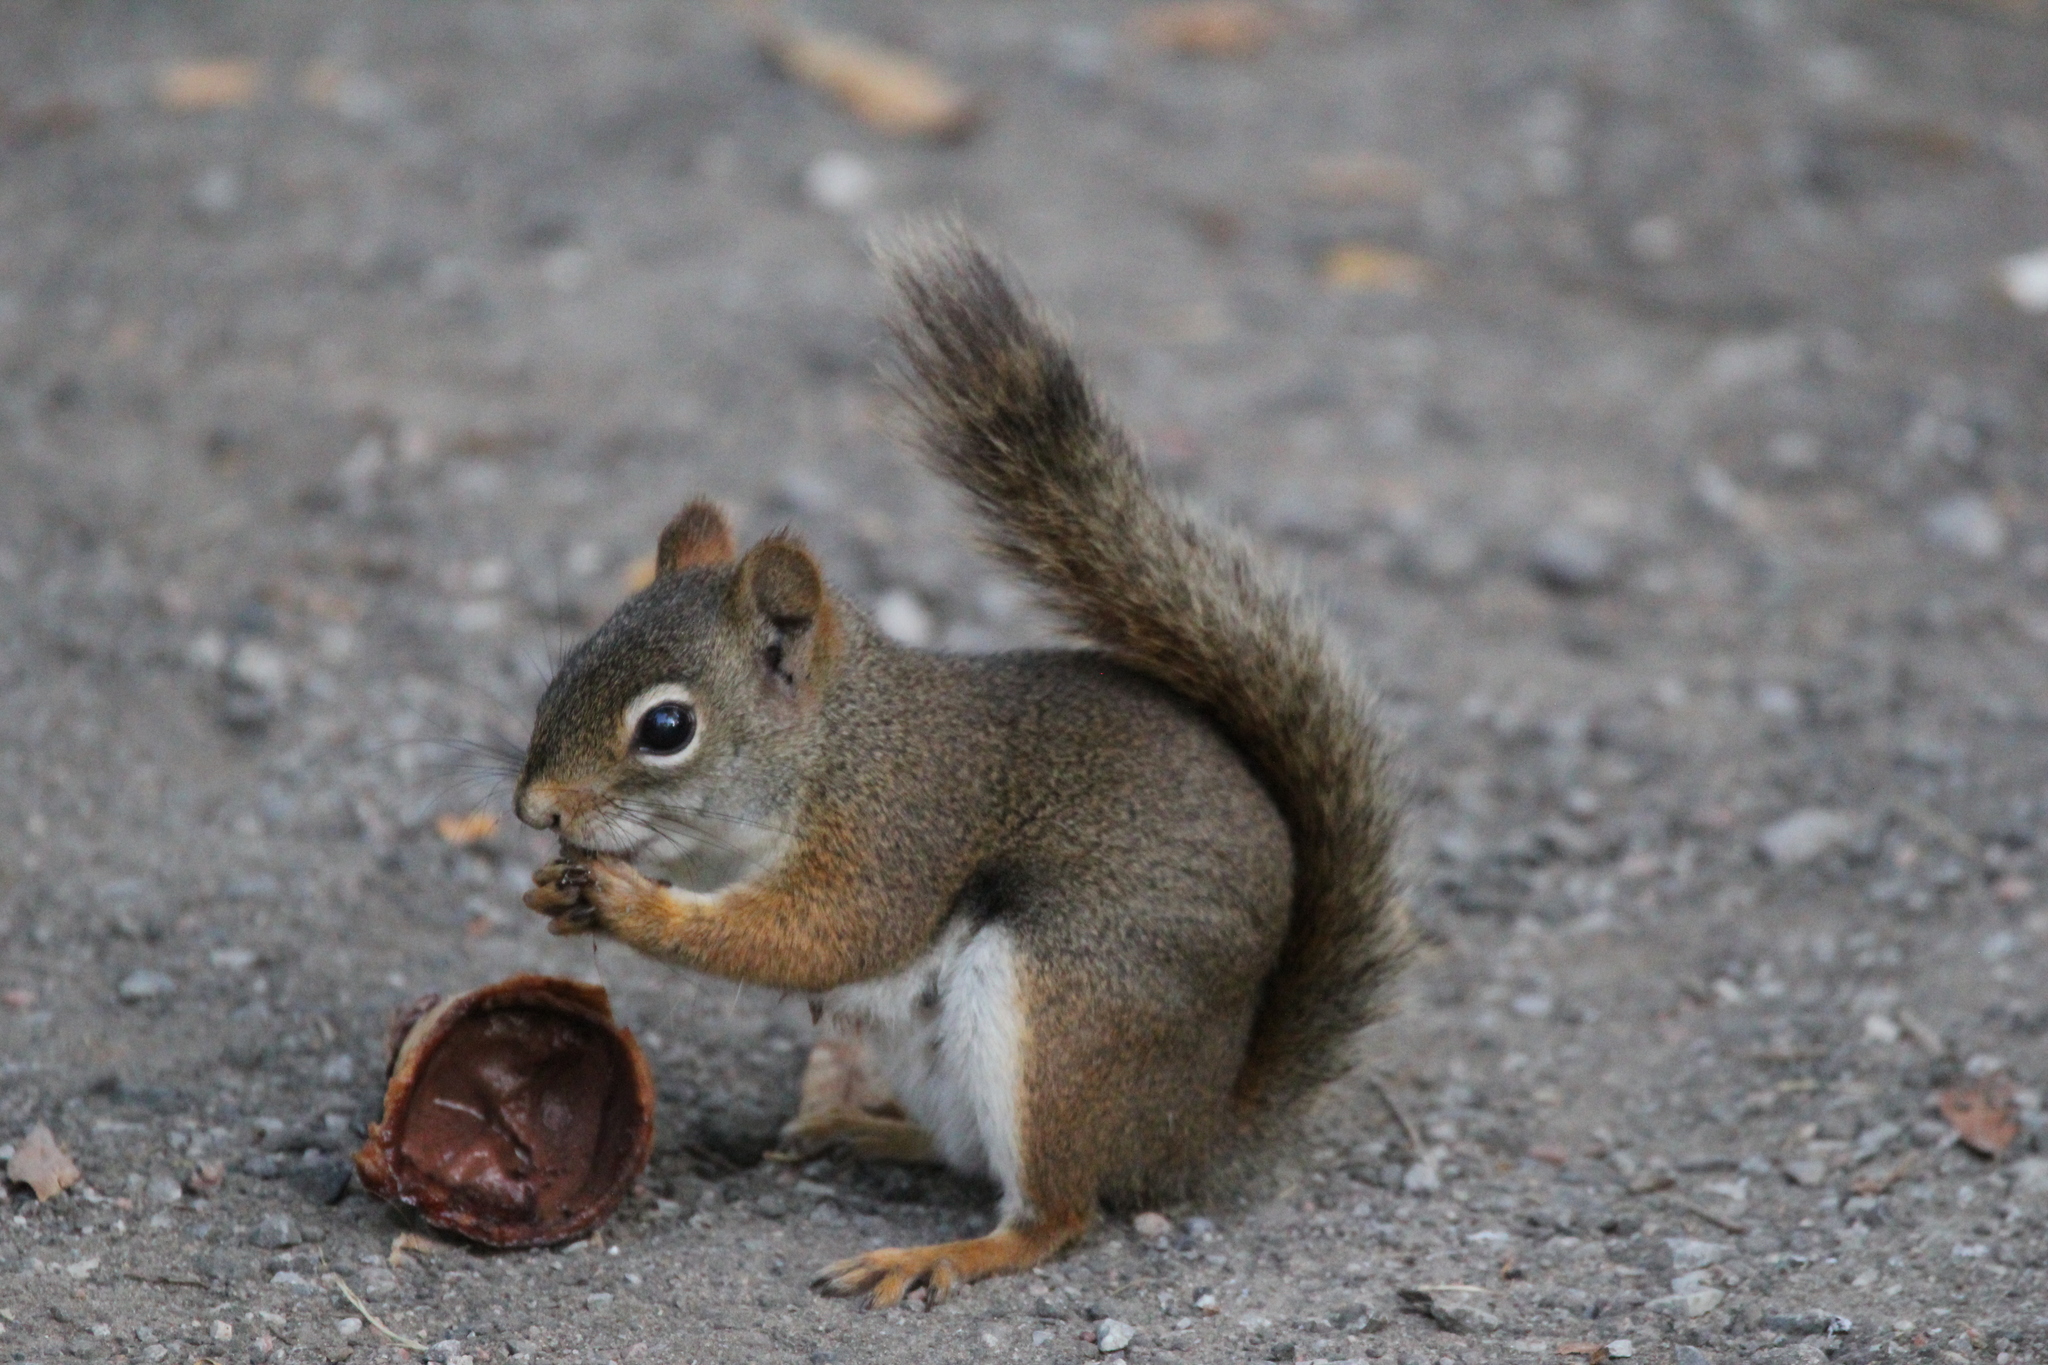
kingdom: Animalia
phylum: Chordata
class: Mammalia
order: Rodentia
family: Sciuridae
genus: Tamiasciurus
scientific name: Tamiasciurus hudsonicus
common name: Red squirrel
